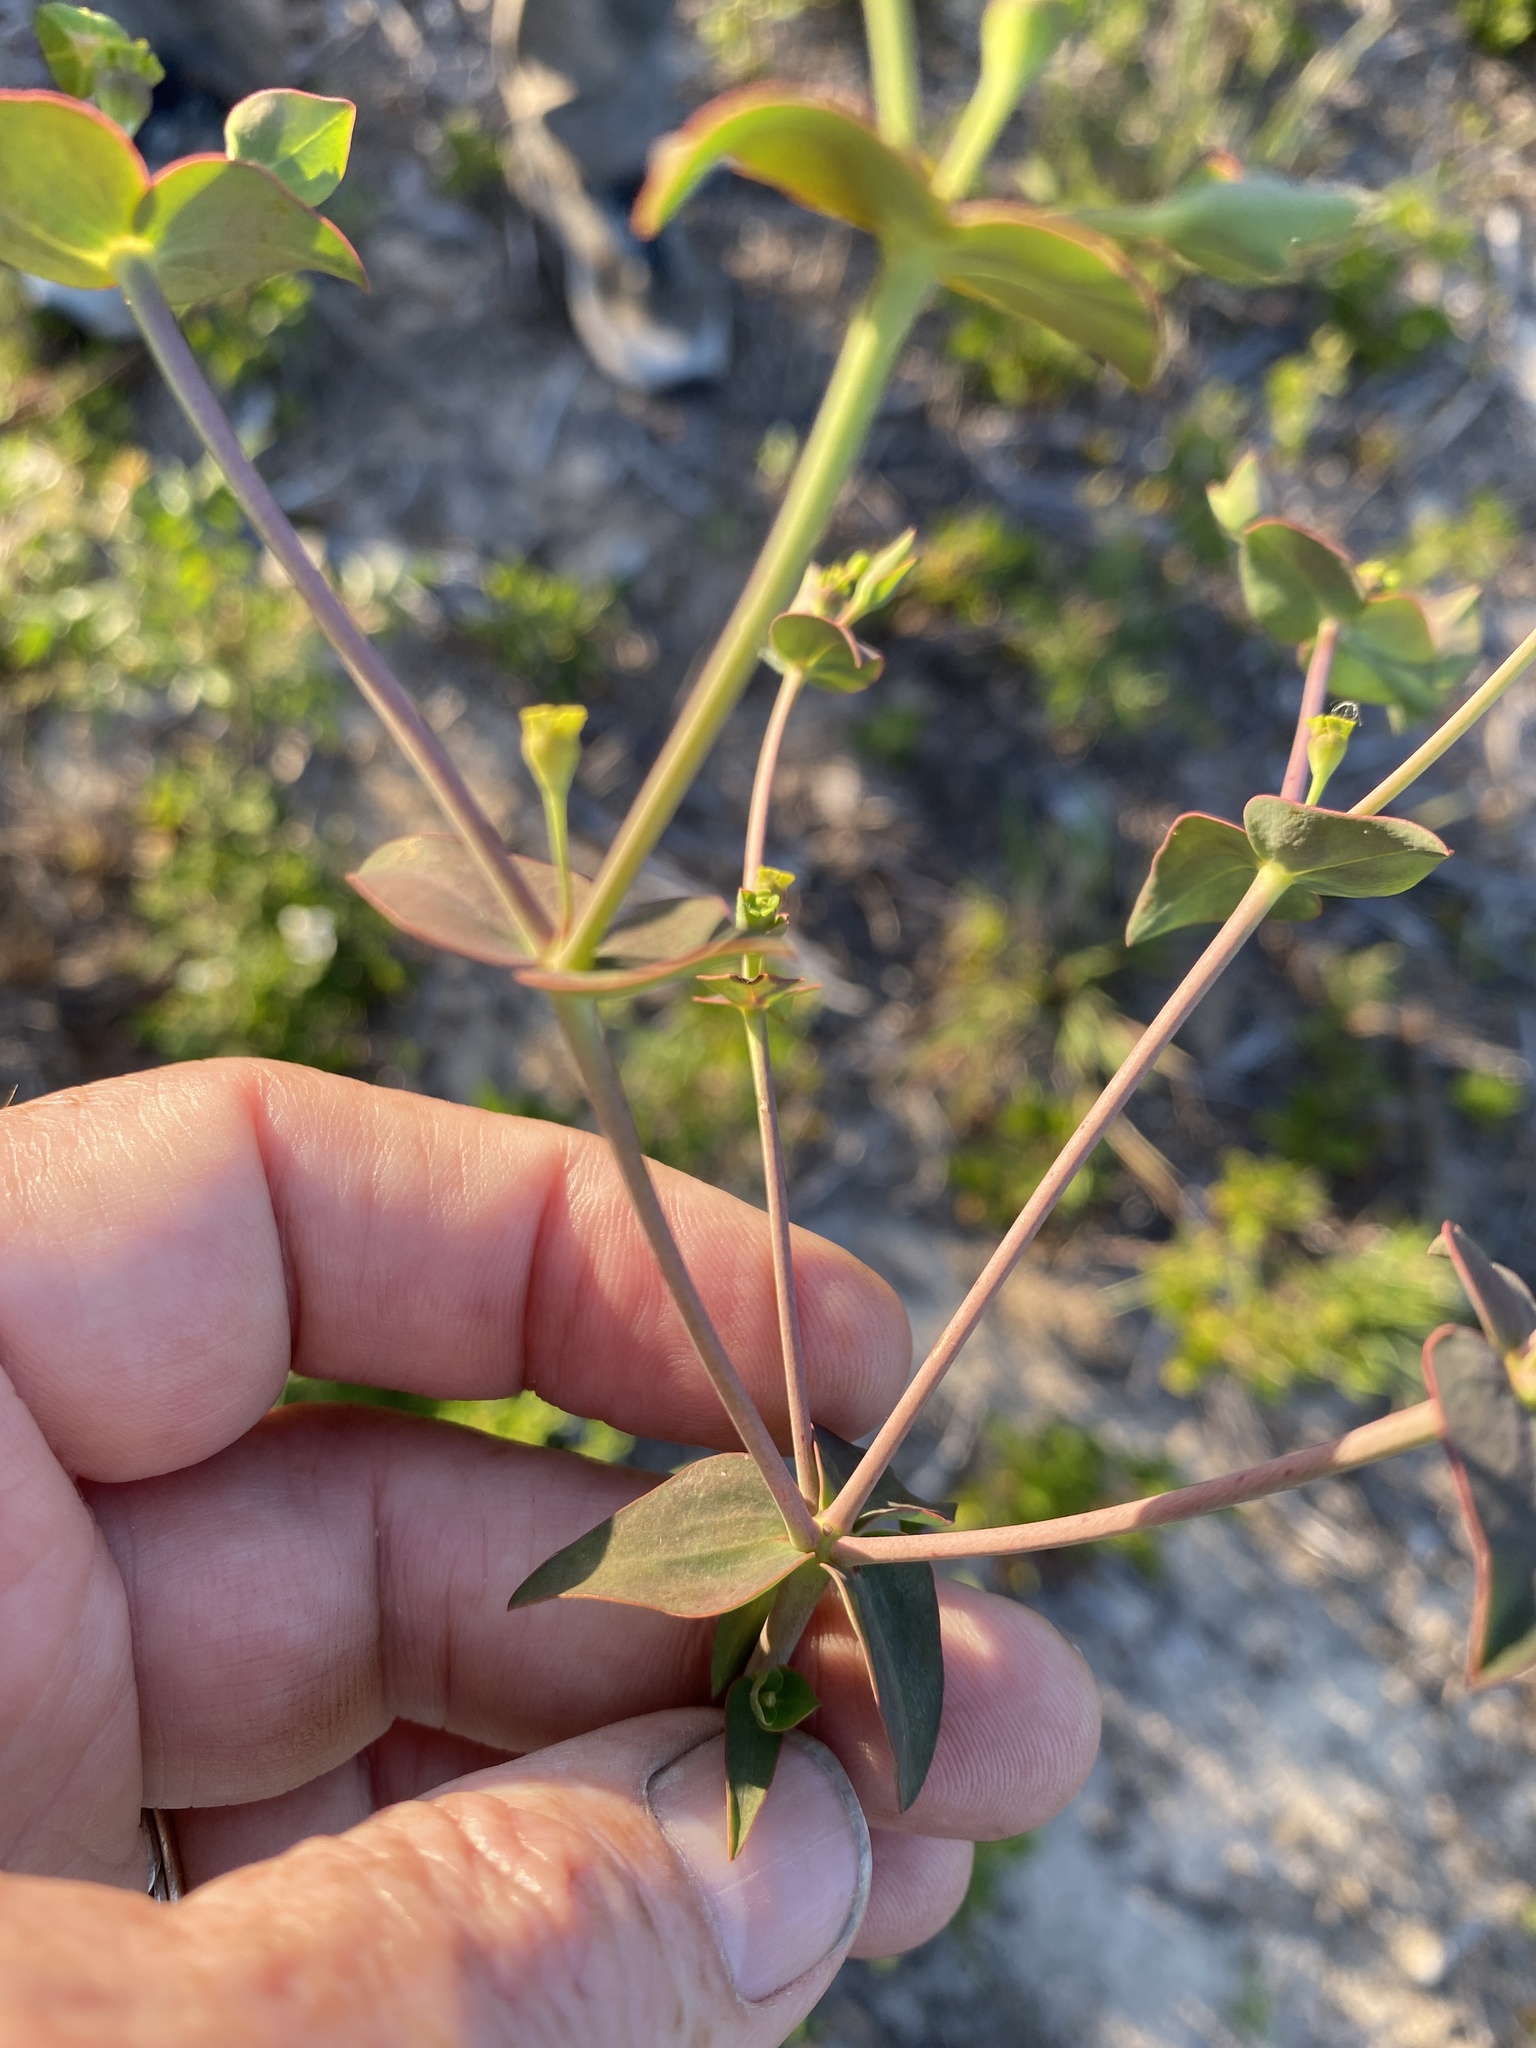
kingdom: Plantae
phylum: Tracheophyta
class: Magnoliopsida
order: Malpighiales
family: Euphorbiaceae
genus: Euphorbia
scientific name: Euphorbia floridana
